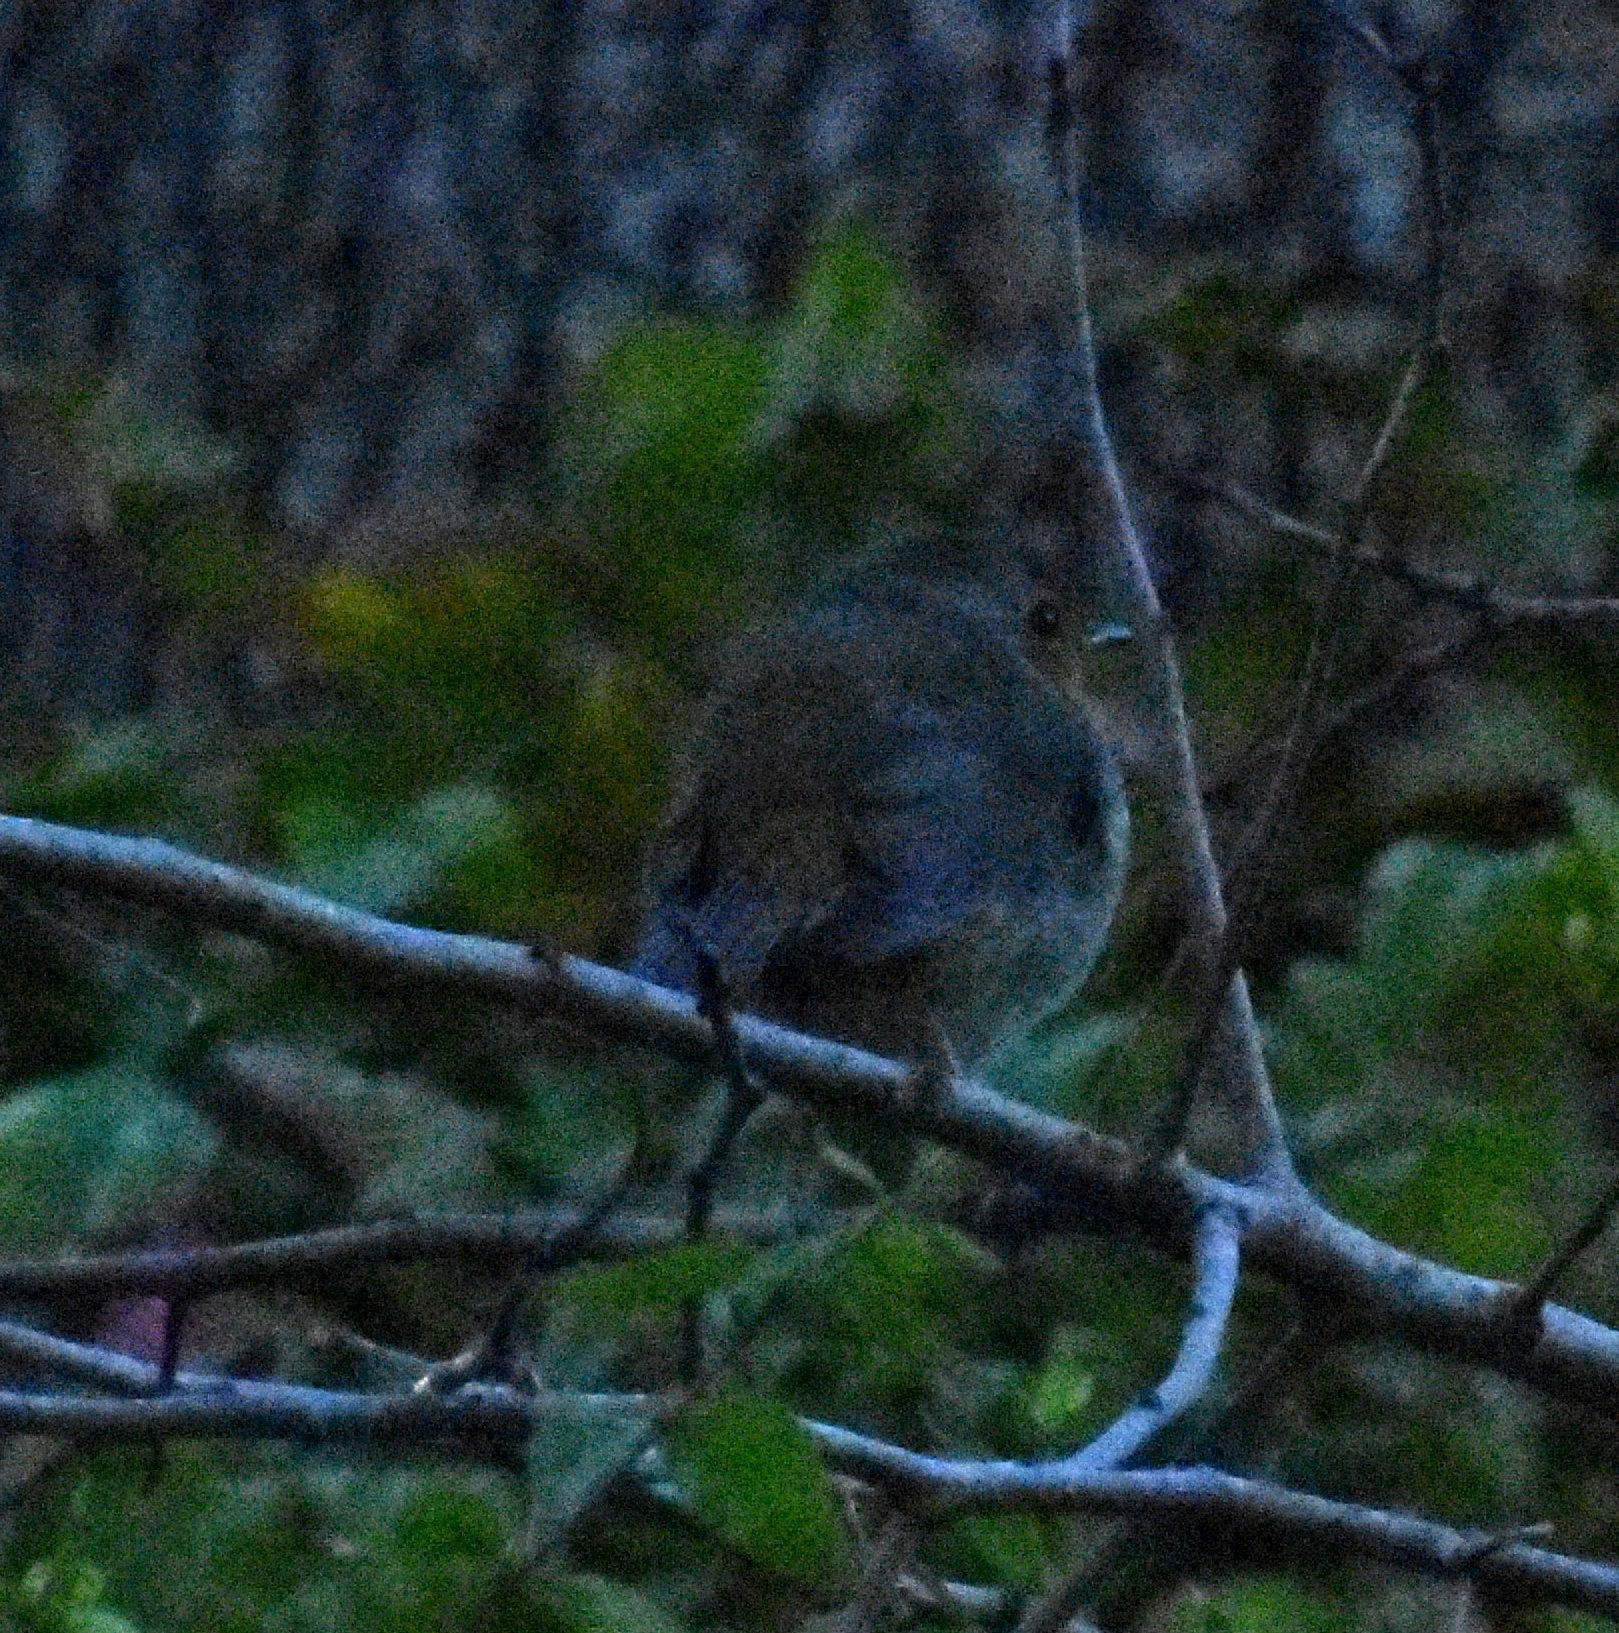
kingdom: Animalia
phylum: Chordata
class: Aves
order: Passeriformes
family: Muscicapidae
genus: Erithacus
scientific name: Erithacus rubecula
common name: European robin
